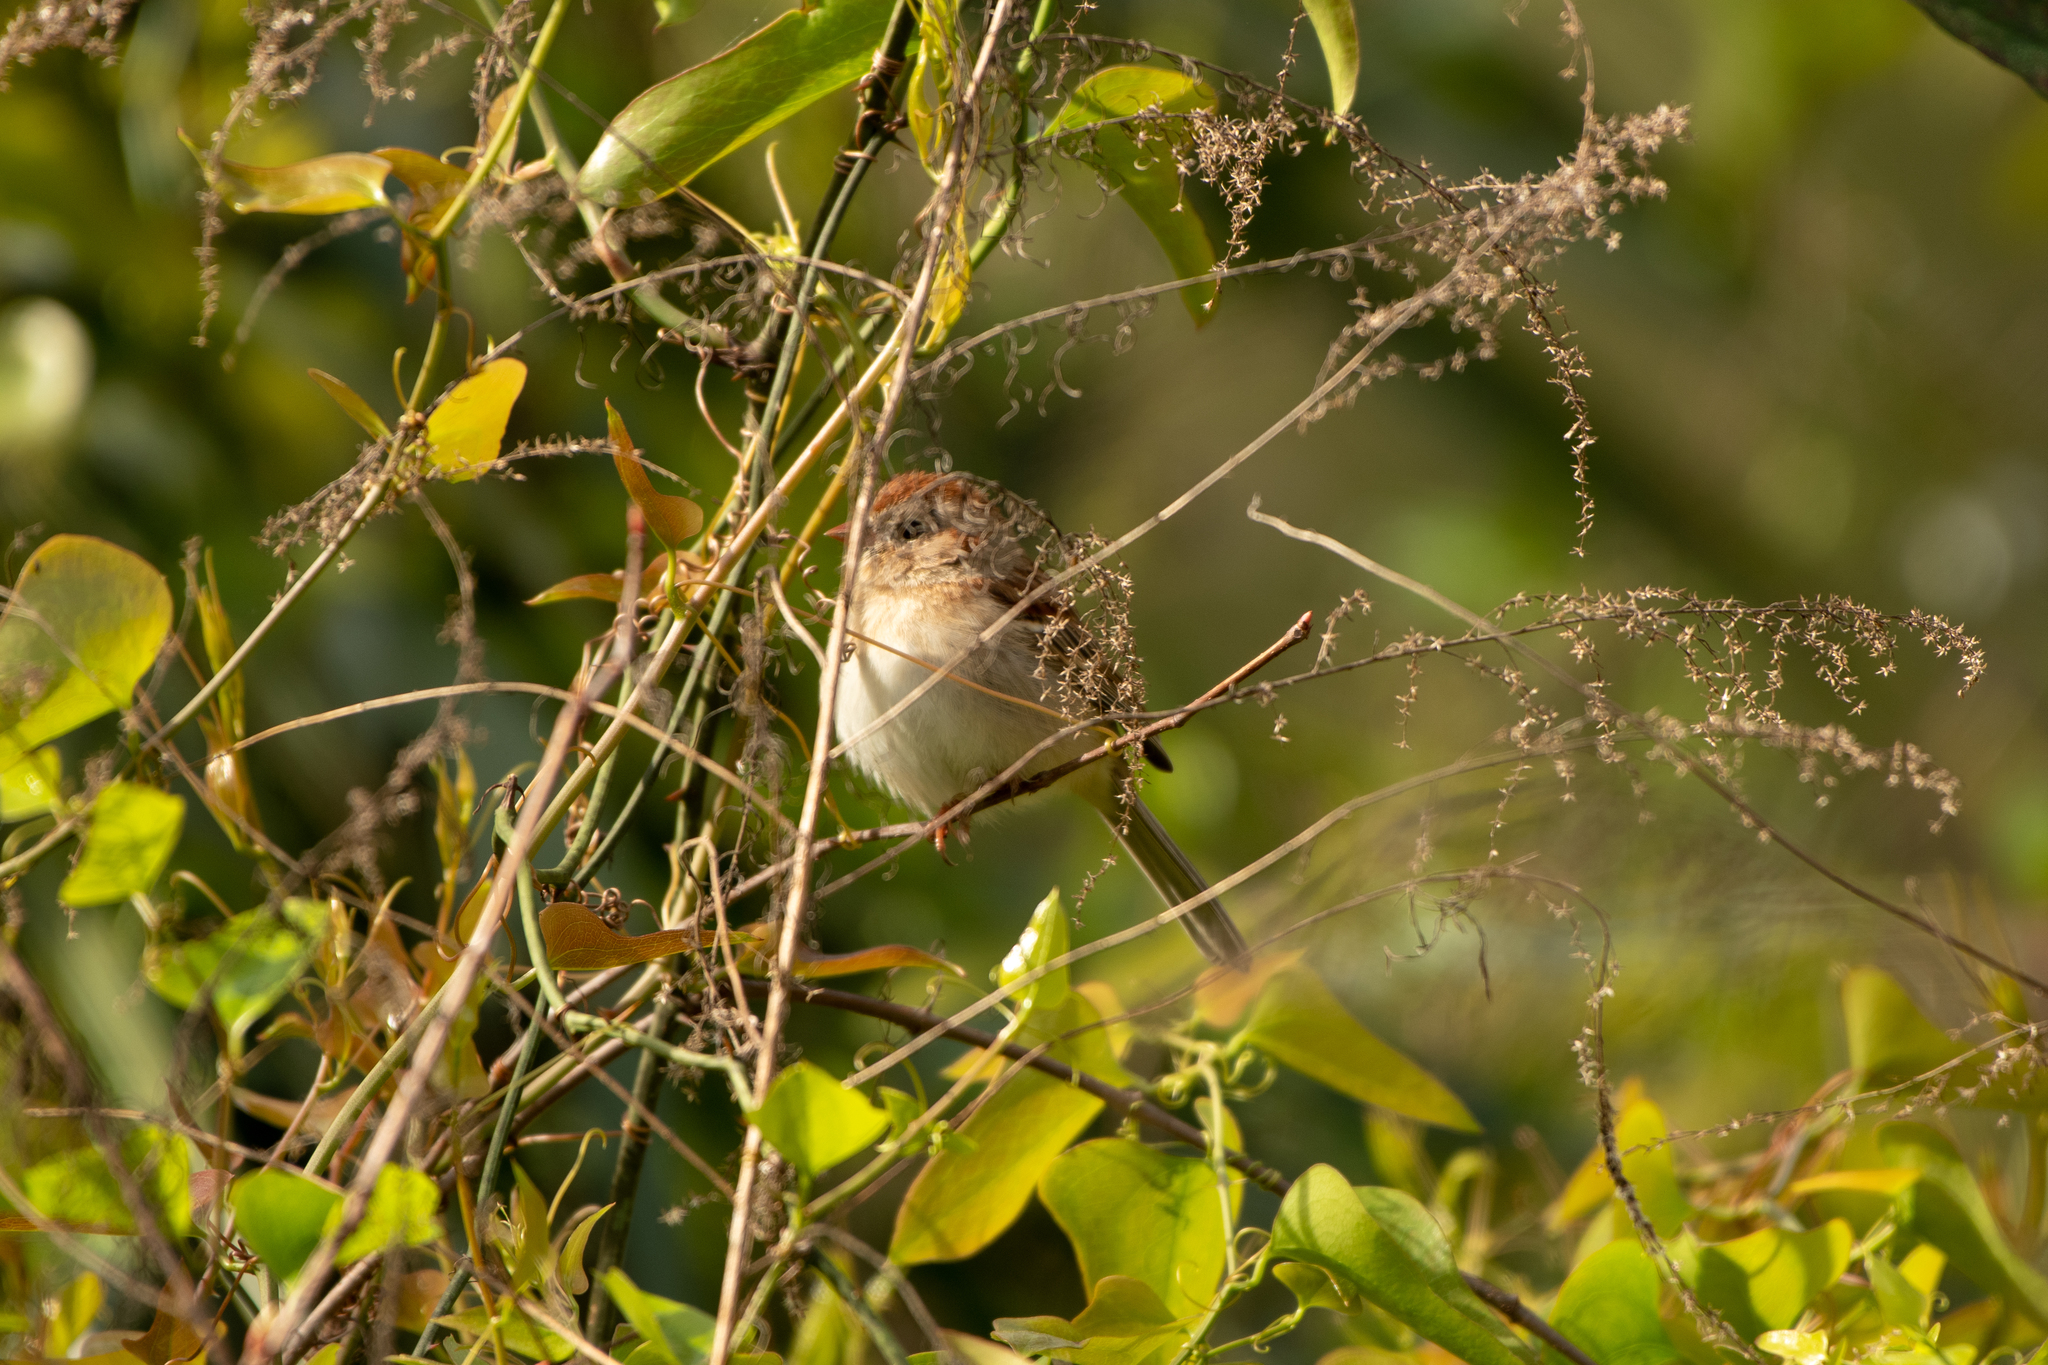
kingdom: Animalia
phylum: Chordata
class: Aves
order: Passeriformes
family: Passerellidae
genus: Spizella
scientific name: Spizella pusilla
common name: Field sparrow
